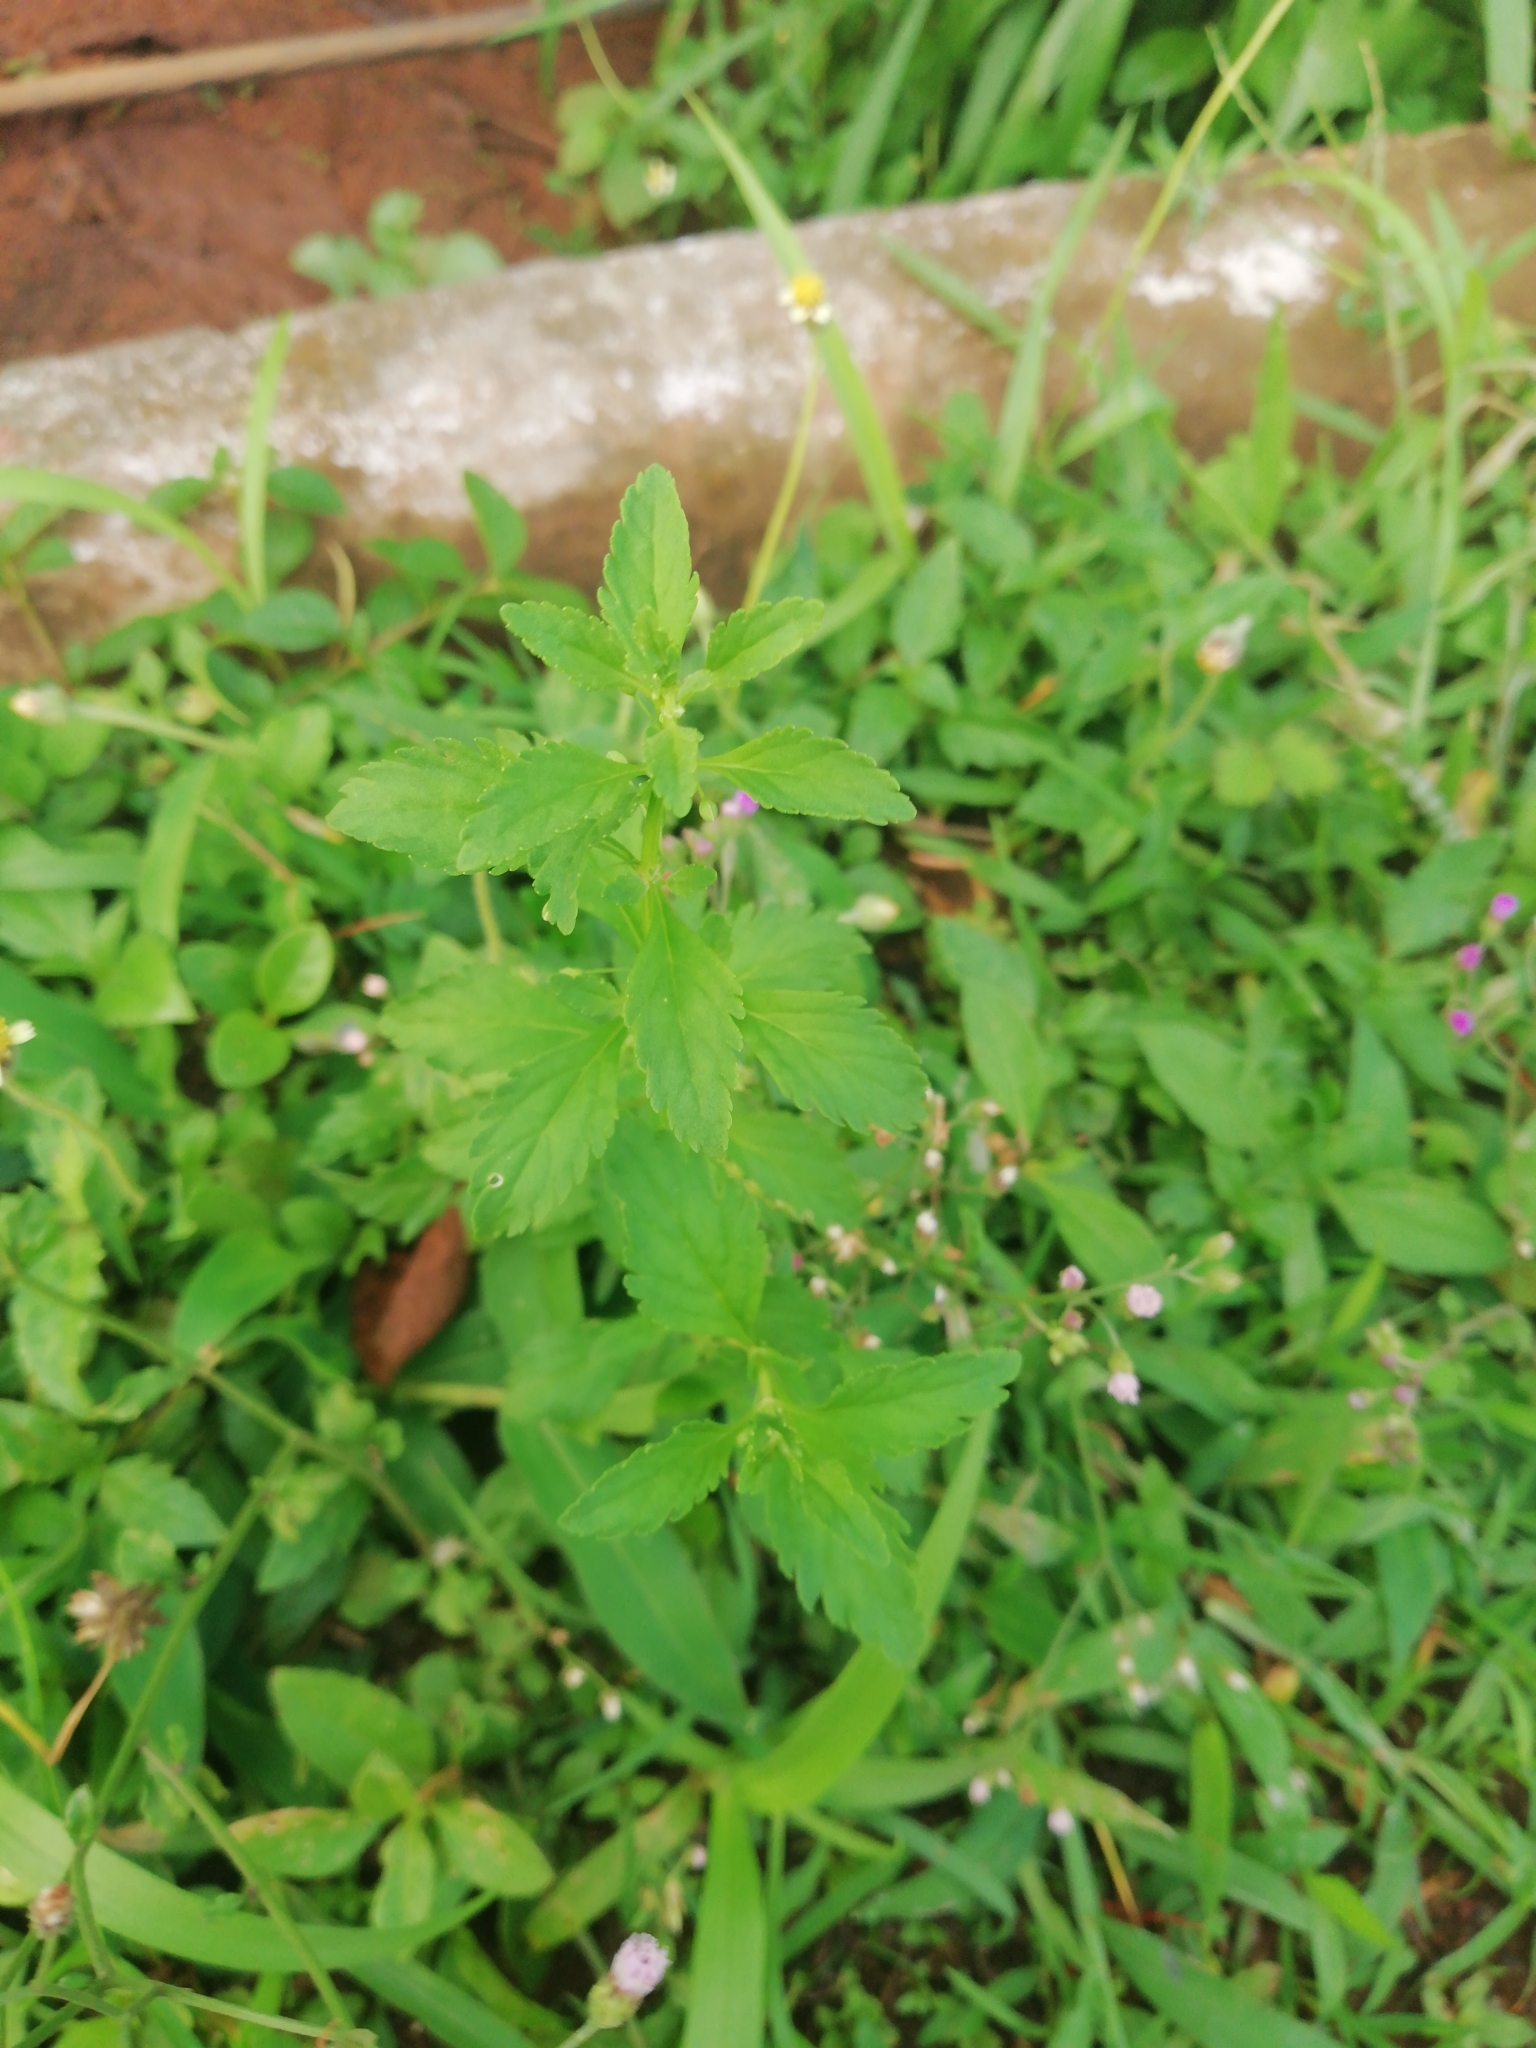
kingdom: Plantae
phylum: Tracheophyta
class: Magnoliopsida
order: Lamiales
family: Plantaginaceae
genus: Scoparia
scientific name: Scoparia dulcis
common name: Scoparia-weed
